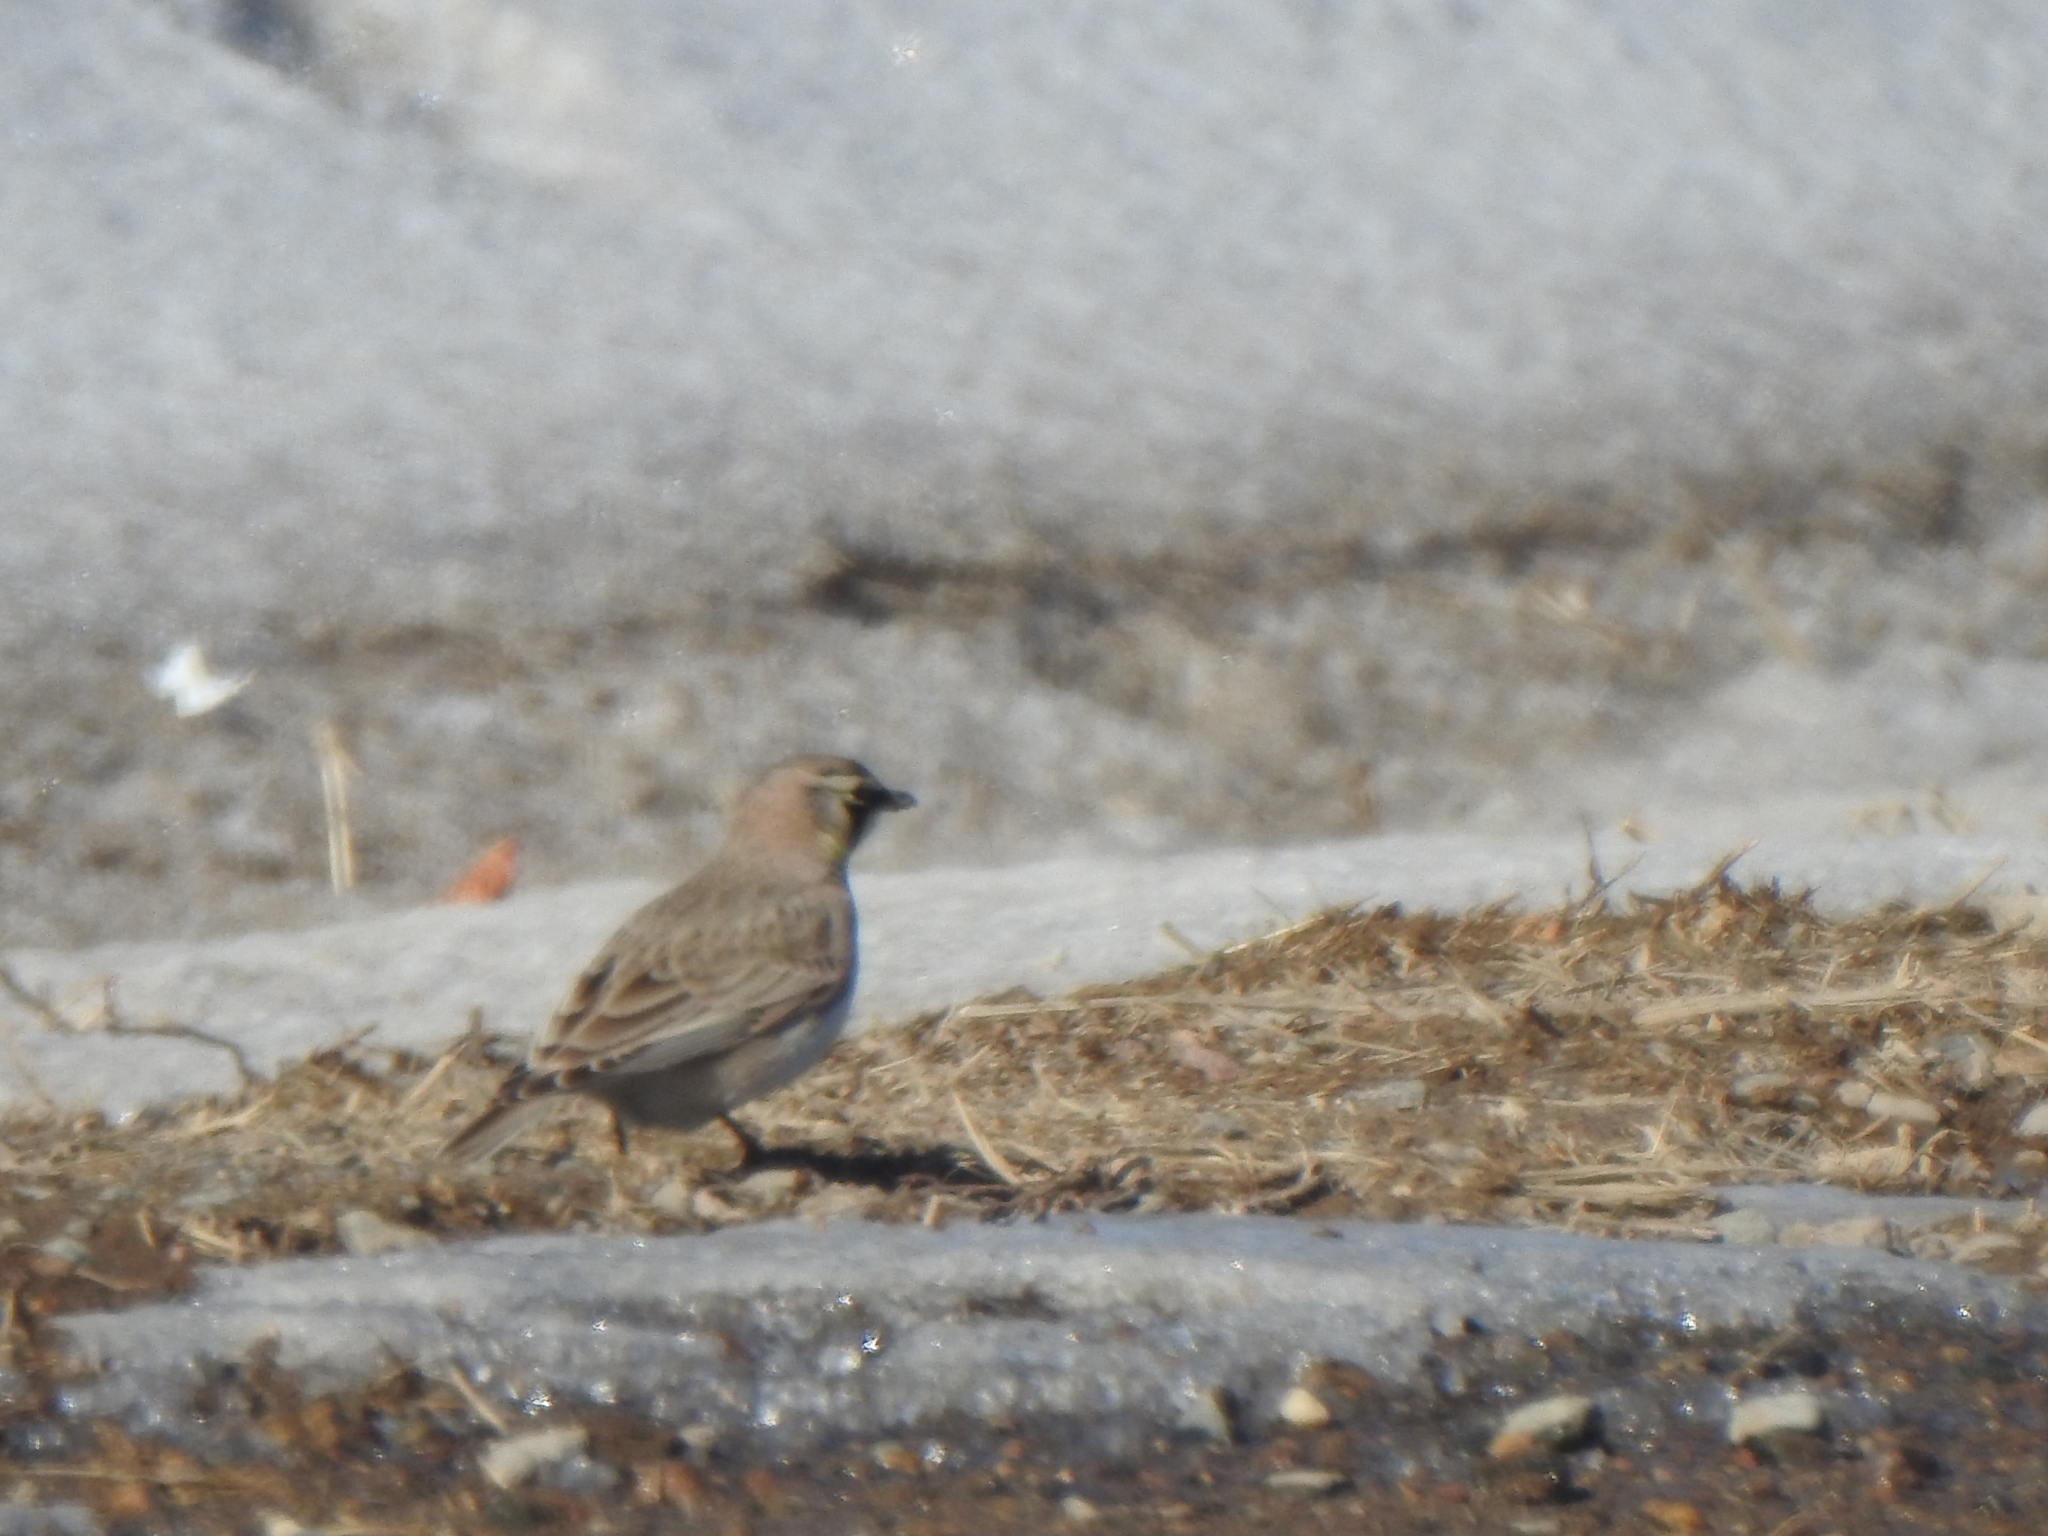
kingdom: Animalia
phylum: Chordata
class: Aves
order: Passeriformes
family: Alaudidae
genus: Eremophila
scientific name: Eremophila alpestris
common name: Horned lark
